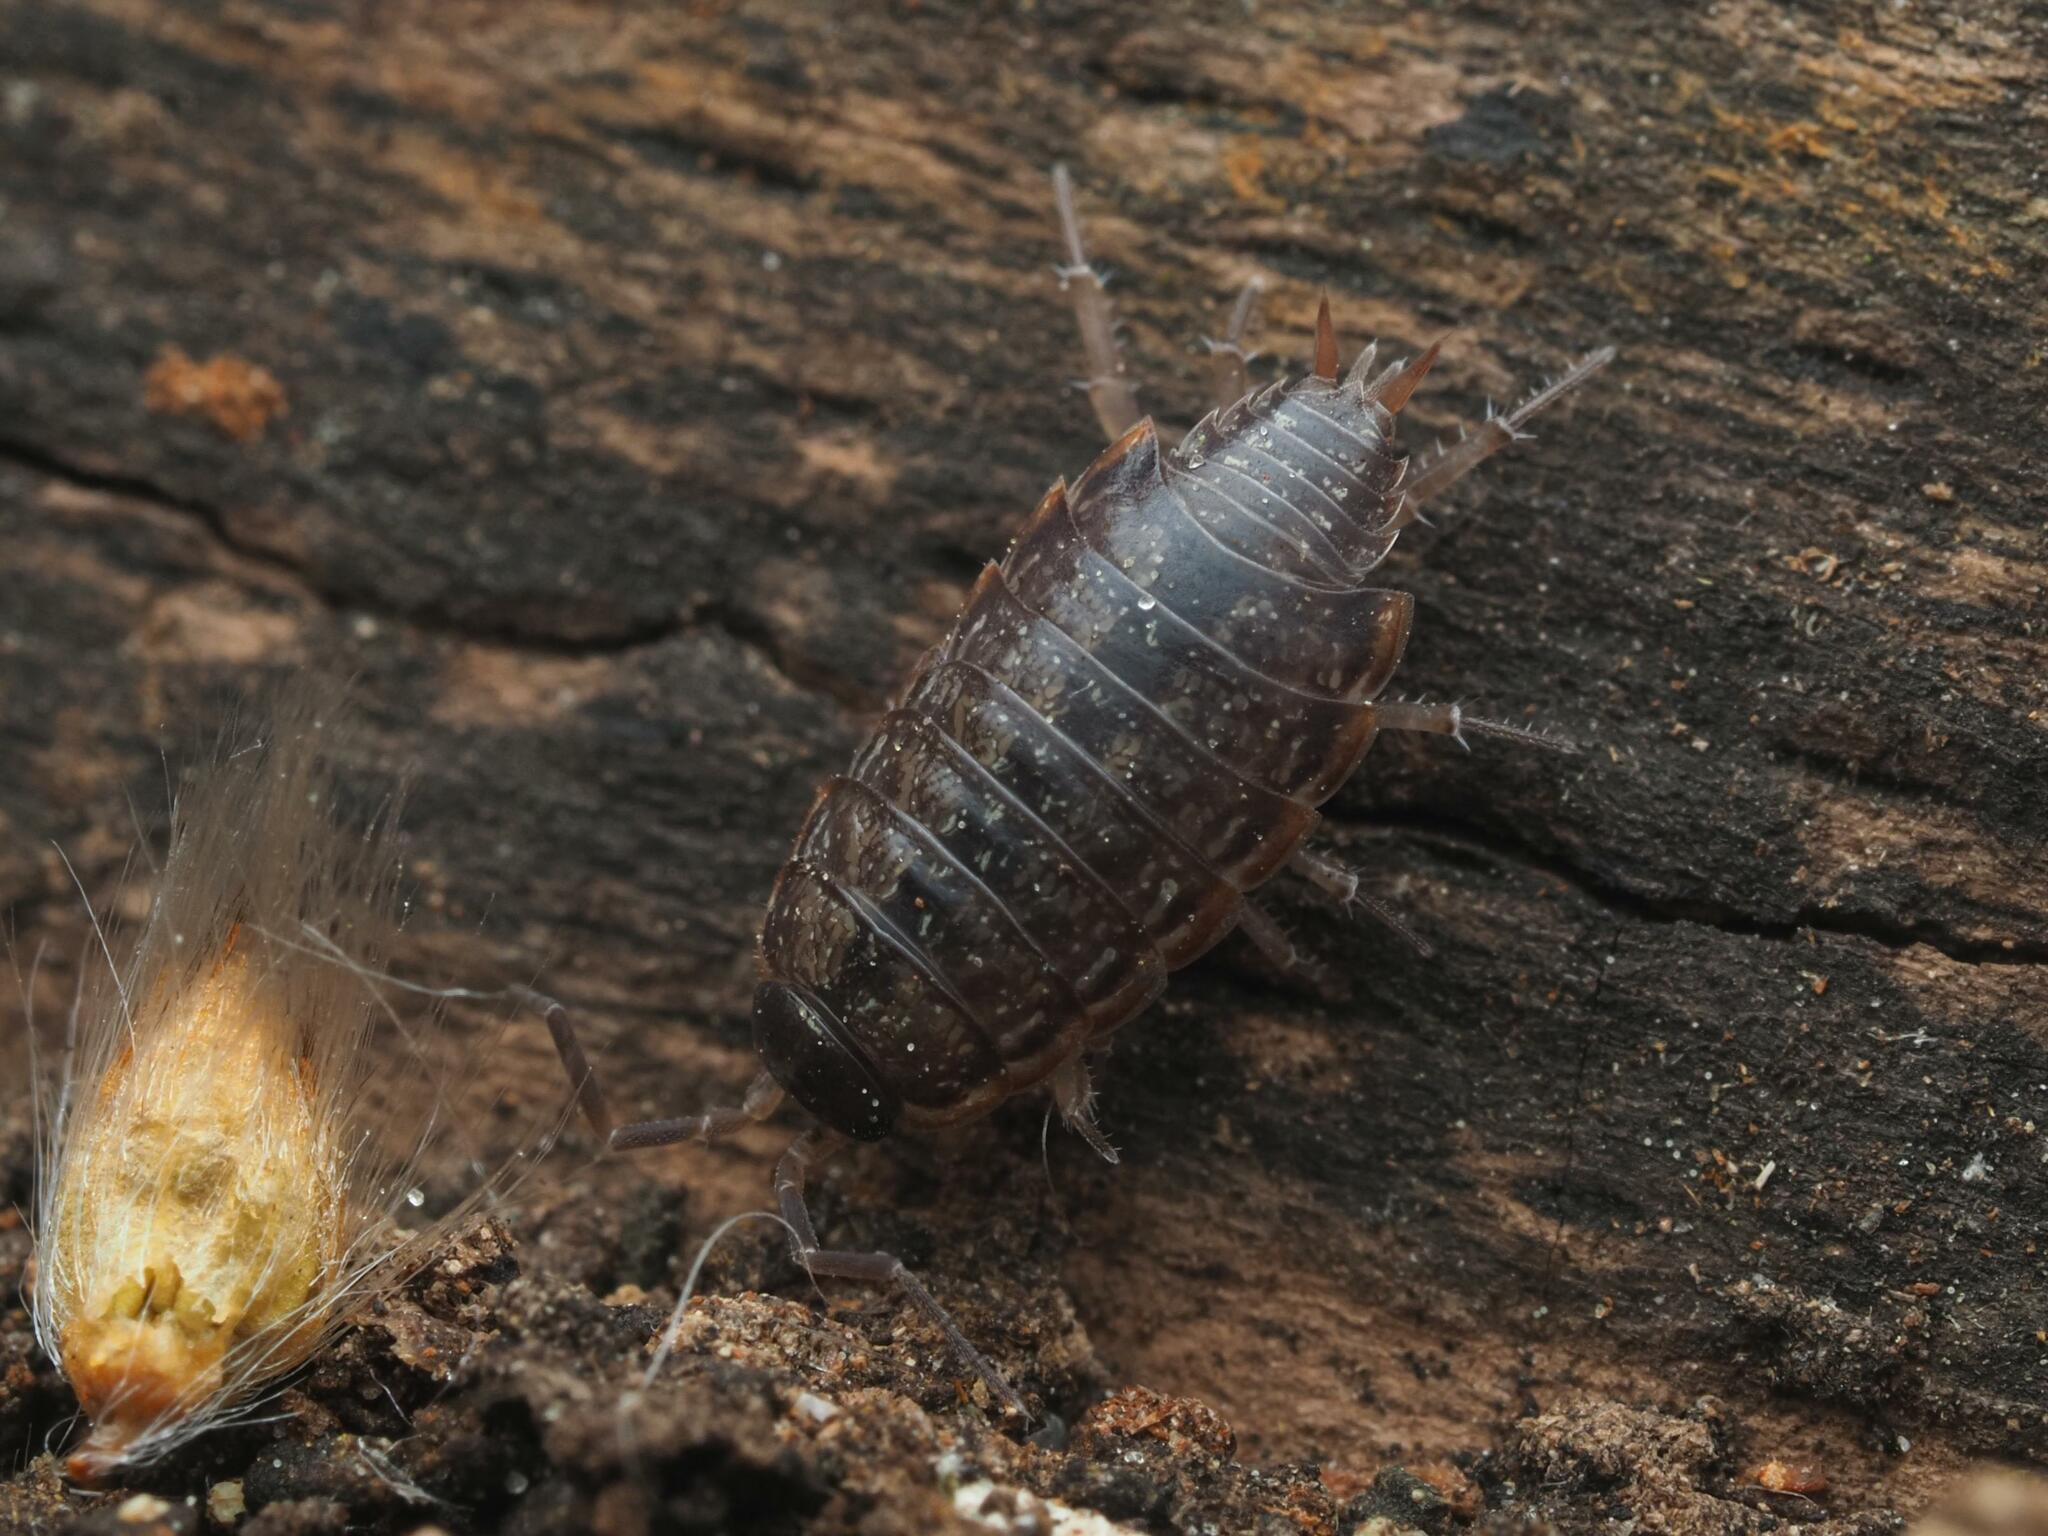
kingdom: Animalia
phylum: Arthropoda
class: Malacostraca
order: Isopoda
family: Philosciidae
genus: Philoscia
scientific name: Philoscia muscorum
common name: Common striped woodlouse
